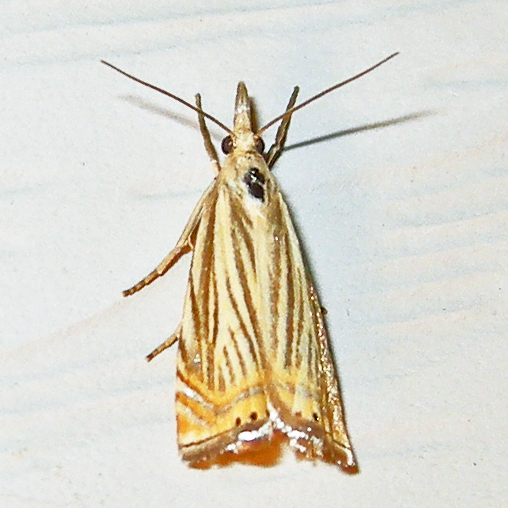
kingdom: Animalia
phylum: Arthropoda
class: Insecta
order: Lepidoptera
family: Crambidae
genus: Chrysoteuchia
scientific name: Chrysoteuchia topiarius
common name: Topiary grass-veneer
